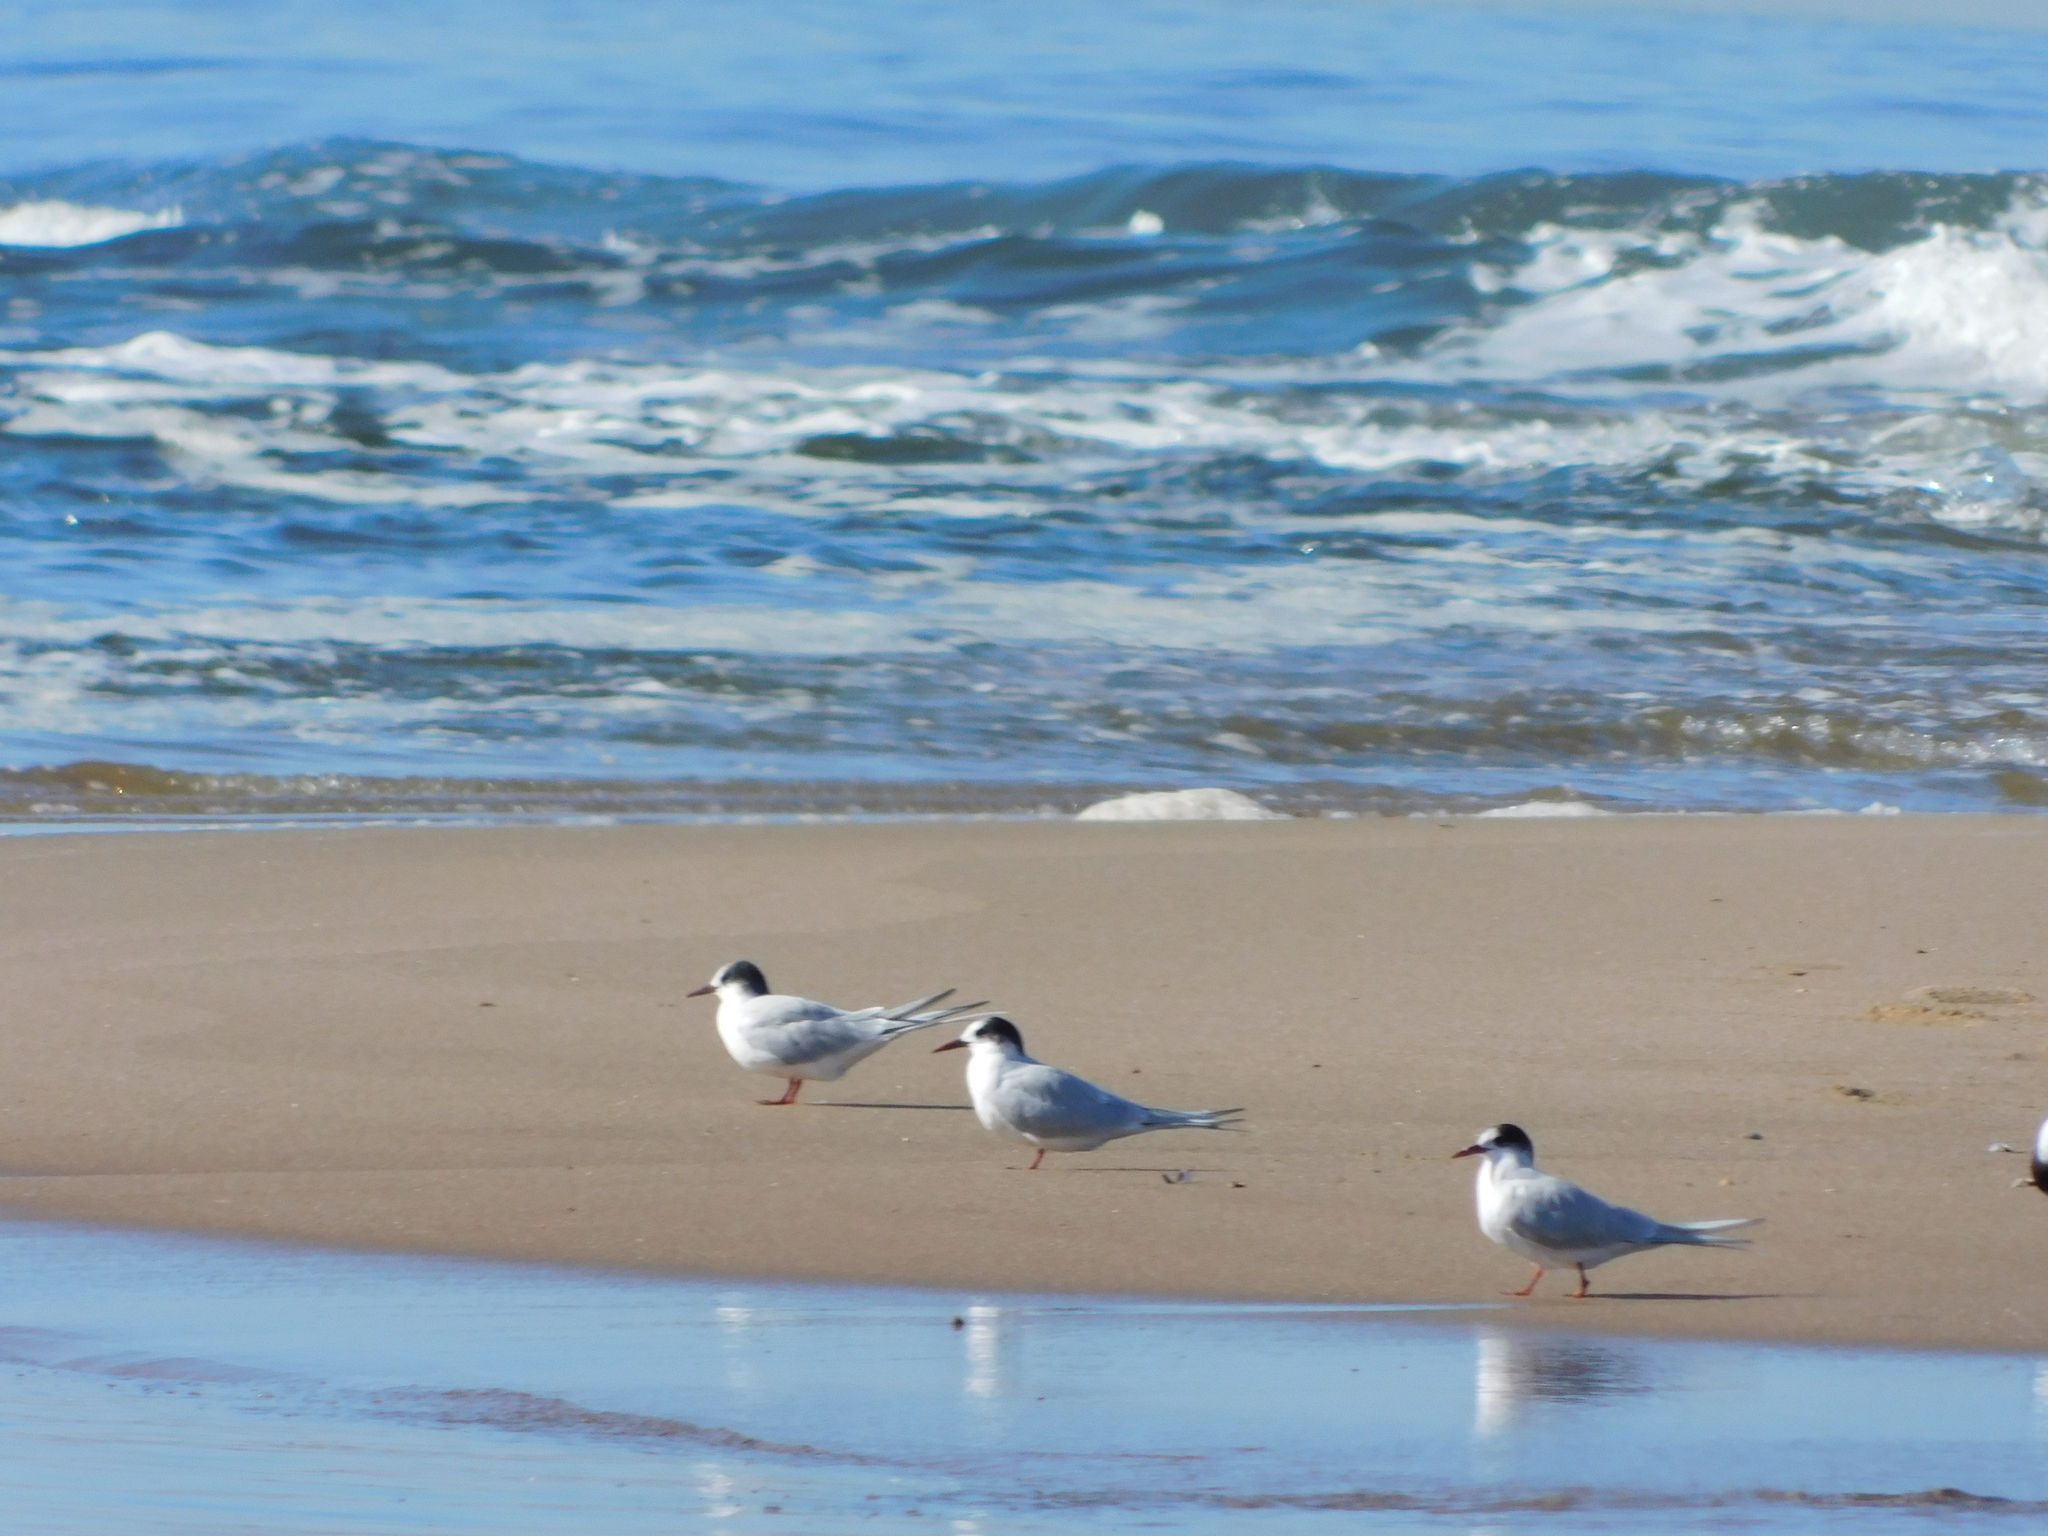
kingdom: Animalia
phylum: Chordata
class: Aves
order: Charadriiformes
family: Laridae
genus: Sterna
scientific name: Sterna hirundinacea
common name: South american tern
